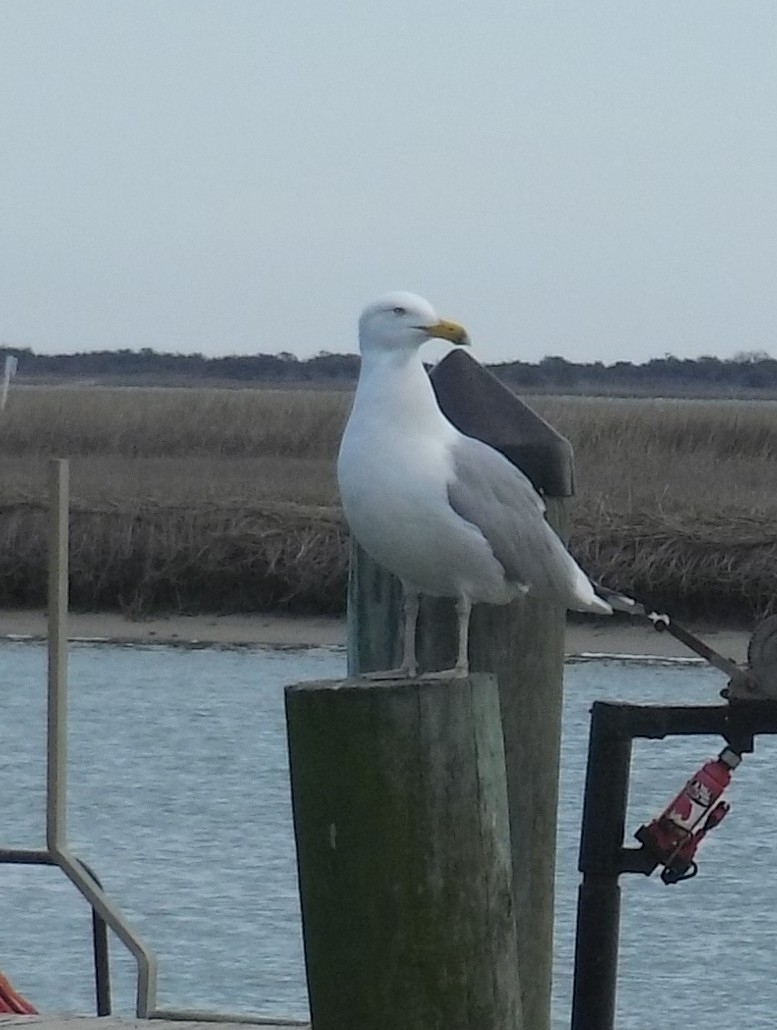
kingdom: Animalia
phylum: Chordata
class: Aves
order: Charadriiformes
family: Laridae
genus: Larus
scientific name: Larus argentatus
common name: Herring gull
